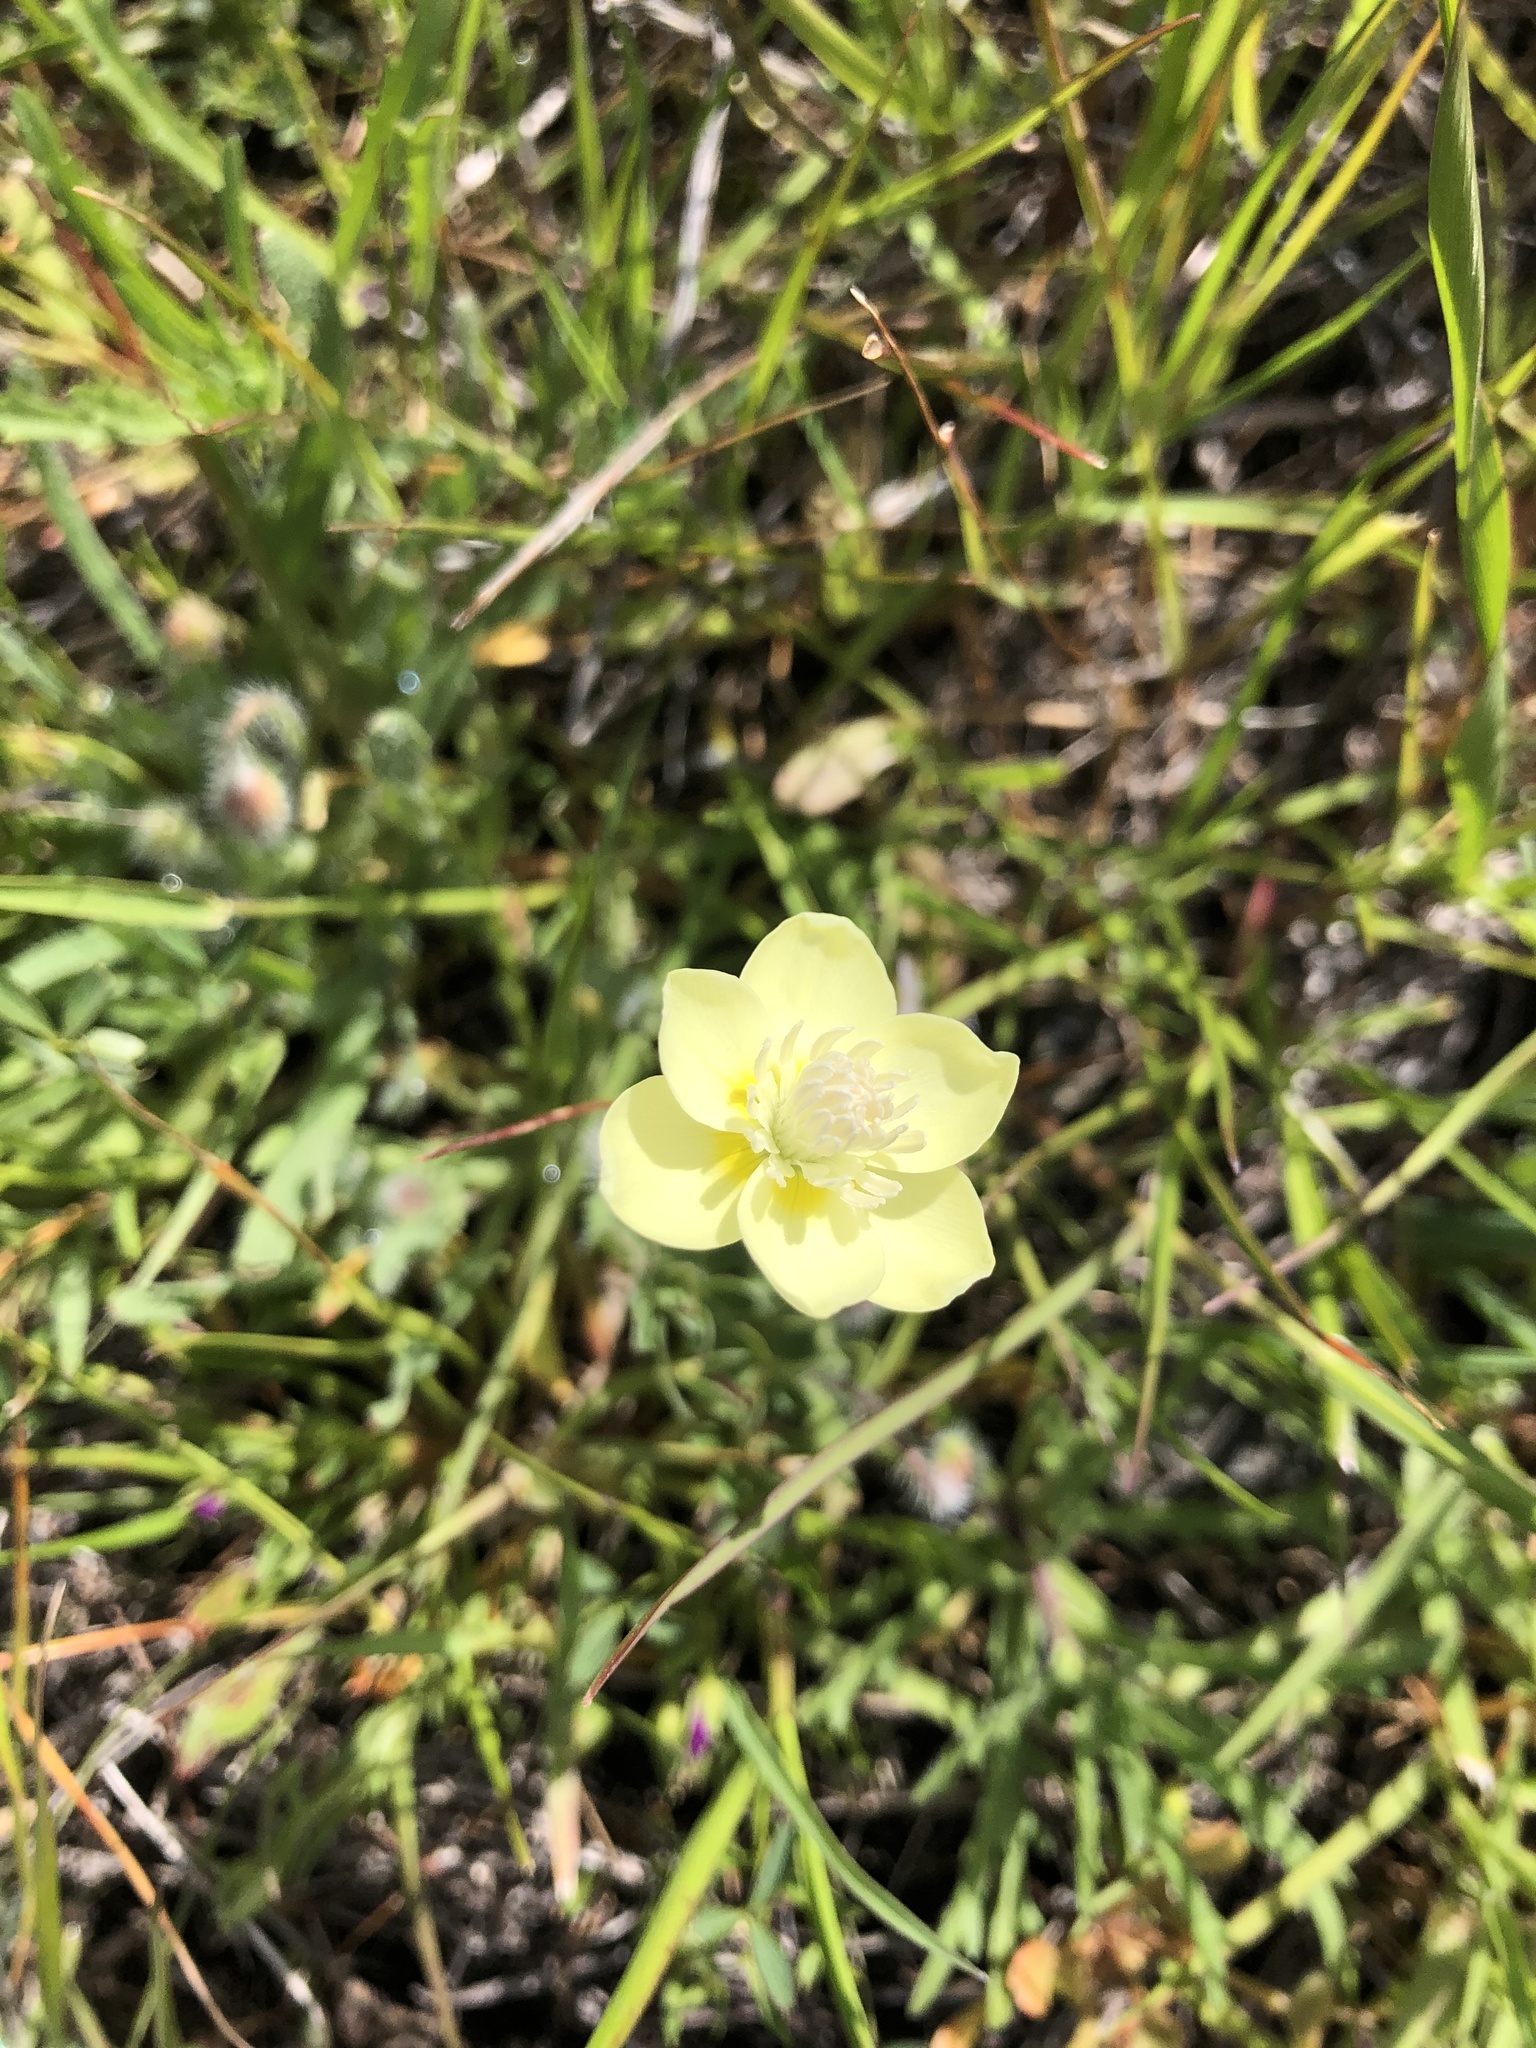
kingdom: Plantae
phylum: Tracheophyta
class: Magnoliopsida
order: Ranunculales
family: Papaveraceae
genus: Platystemon
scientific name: Platystemon californicus
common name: Cream-cups
